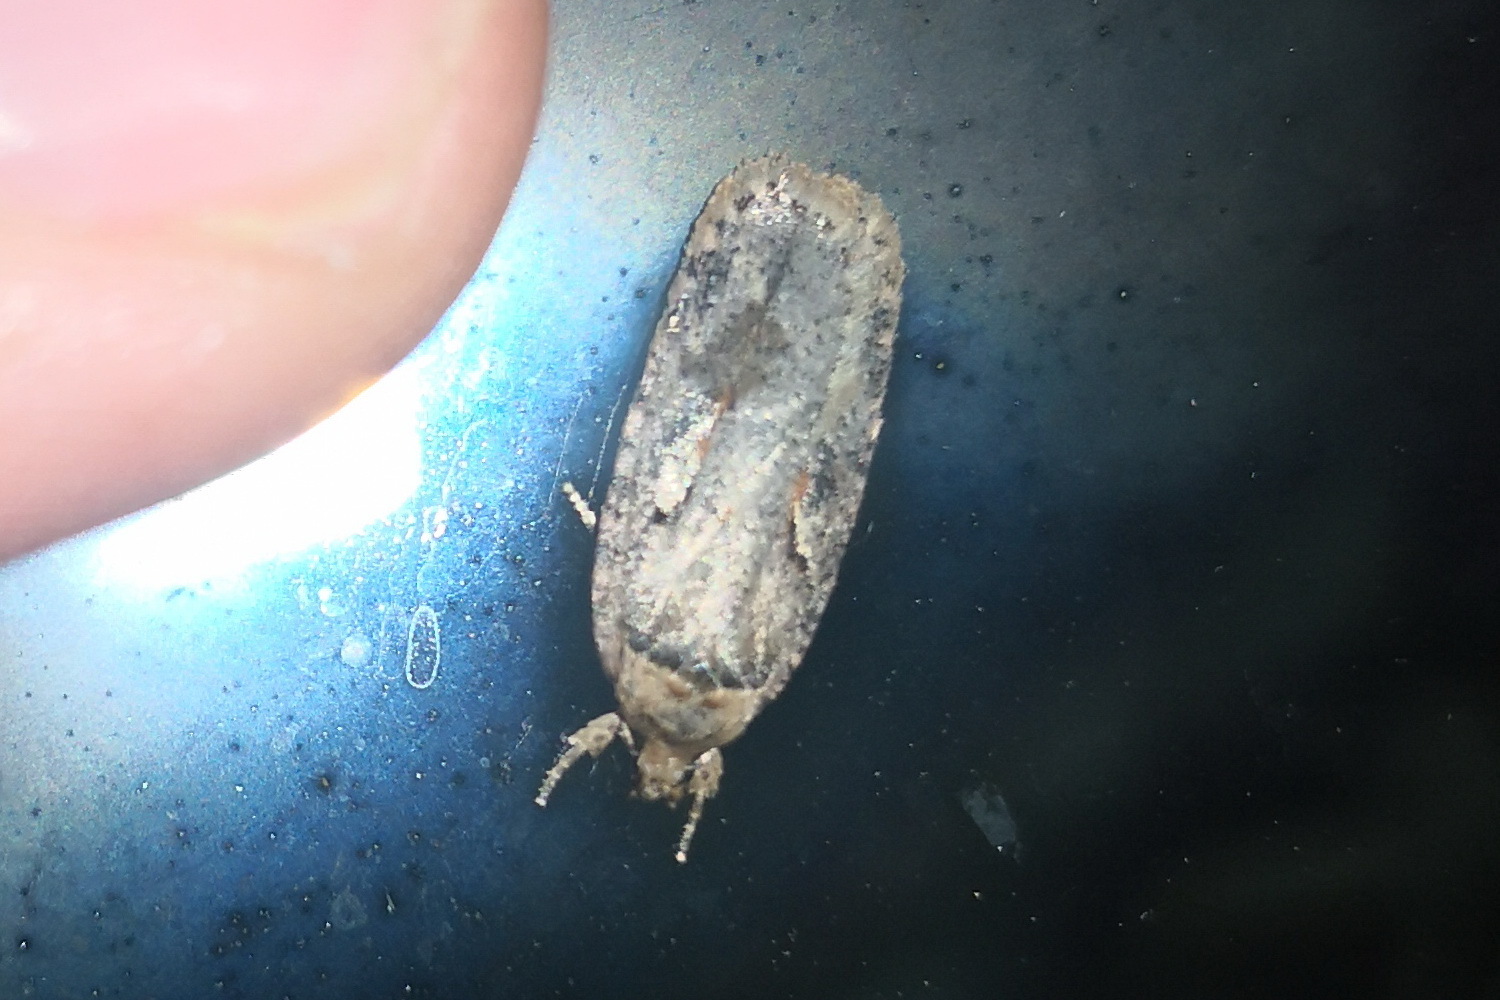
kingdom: Animalia
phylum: Arthropoda
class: Insecta
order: Lepidoptera
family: Depressariidae
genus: Agonopterix
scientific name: Agonopterix ocellana
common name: Red-letter flat-body
